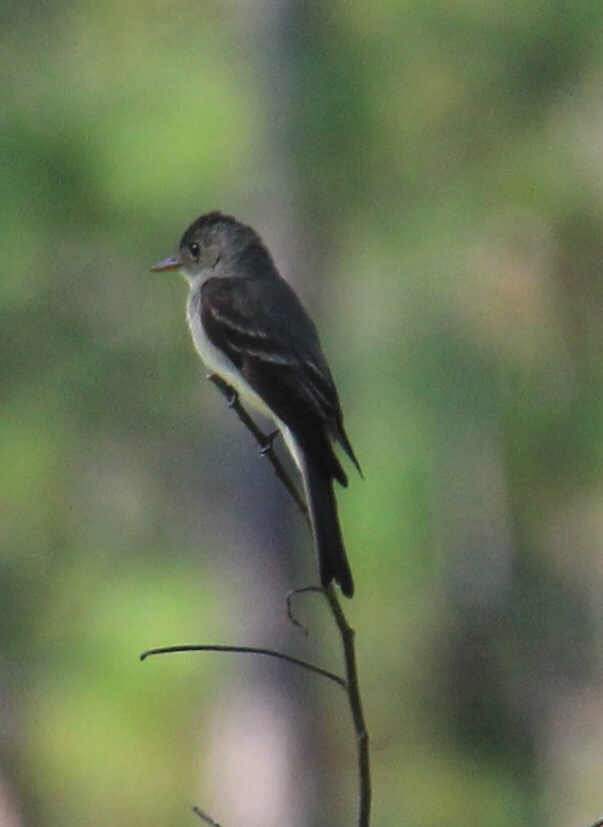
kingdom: Animalia
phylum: Chordata
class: Aves
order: Passeriformes
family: Tyrannidae
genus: Contopus
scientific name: Contopus virens
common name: Eastern wood-pewee
